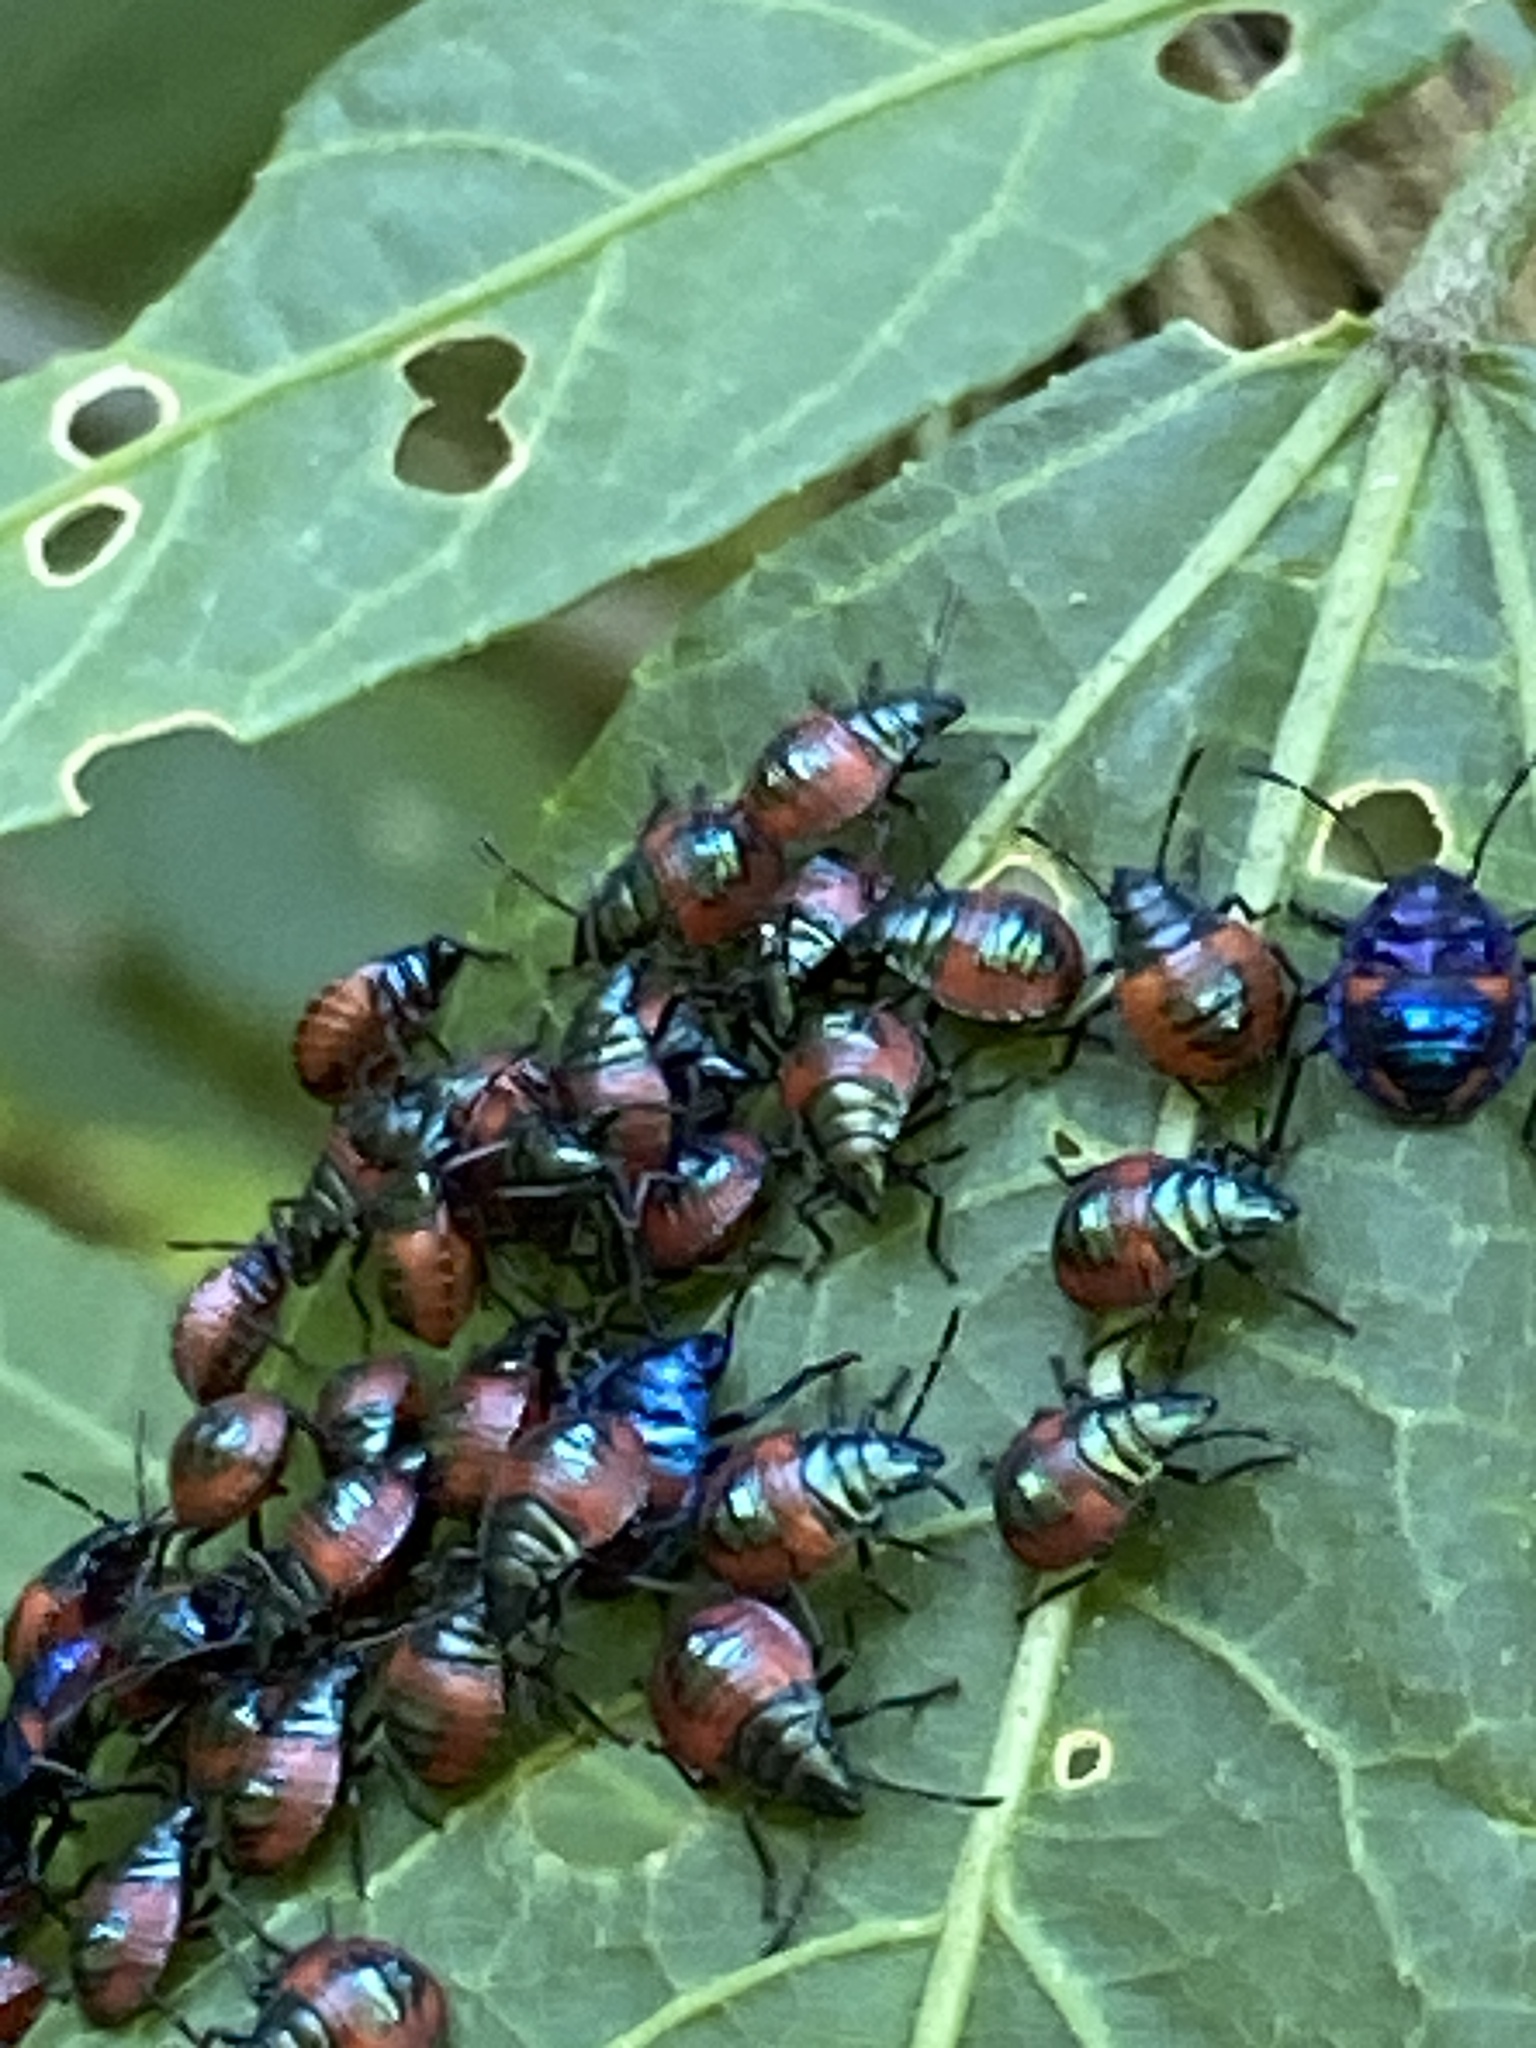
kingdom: Animalia
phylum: Arthropoda
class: Insecta
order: Hemiptera
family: Scutelleridae
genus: Tectocoris
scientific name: Tectocoris diophthalmus
